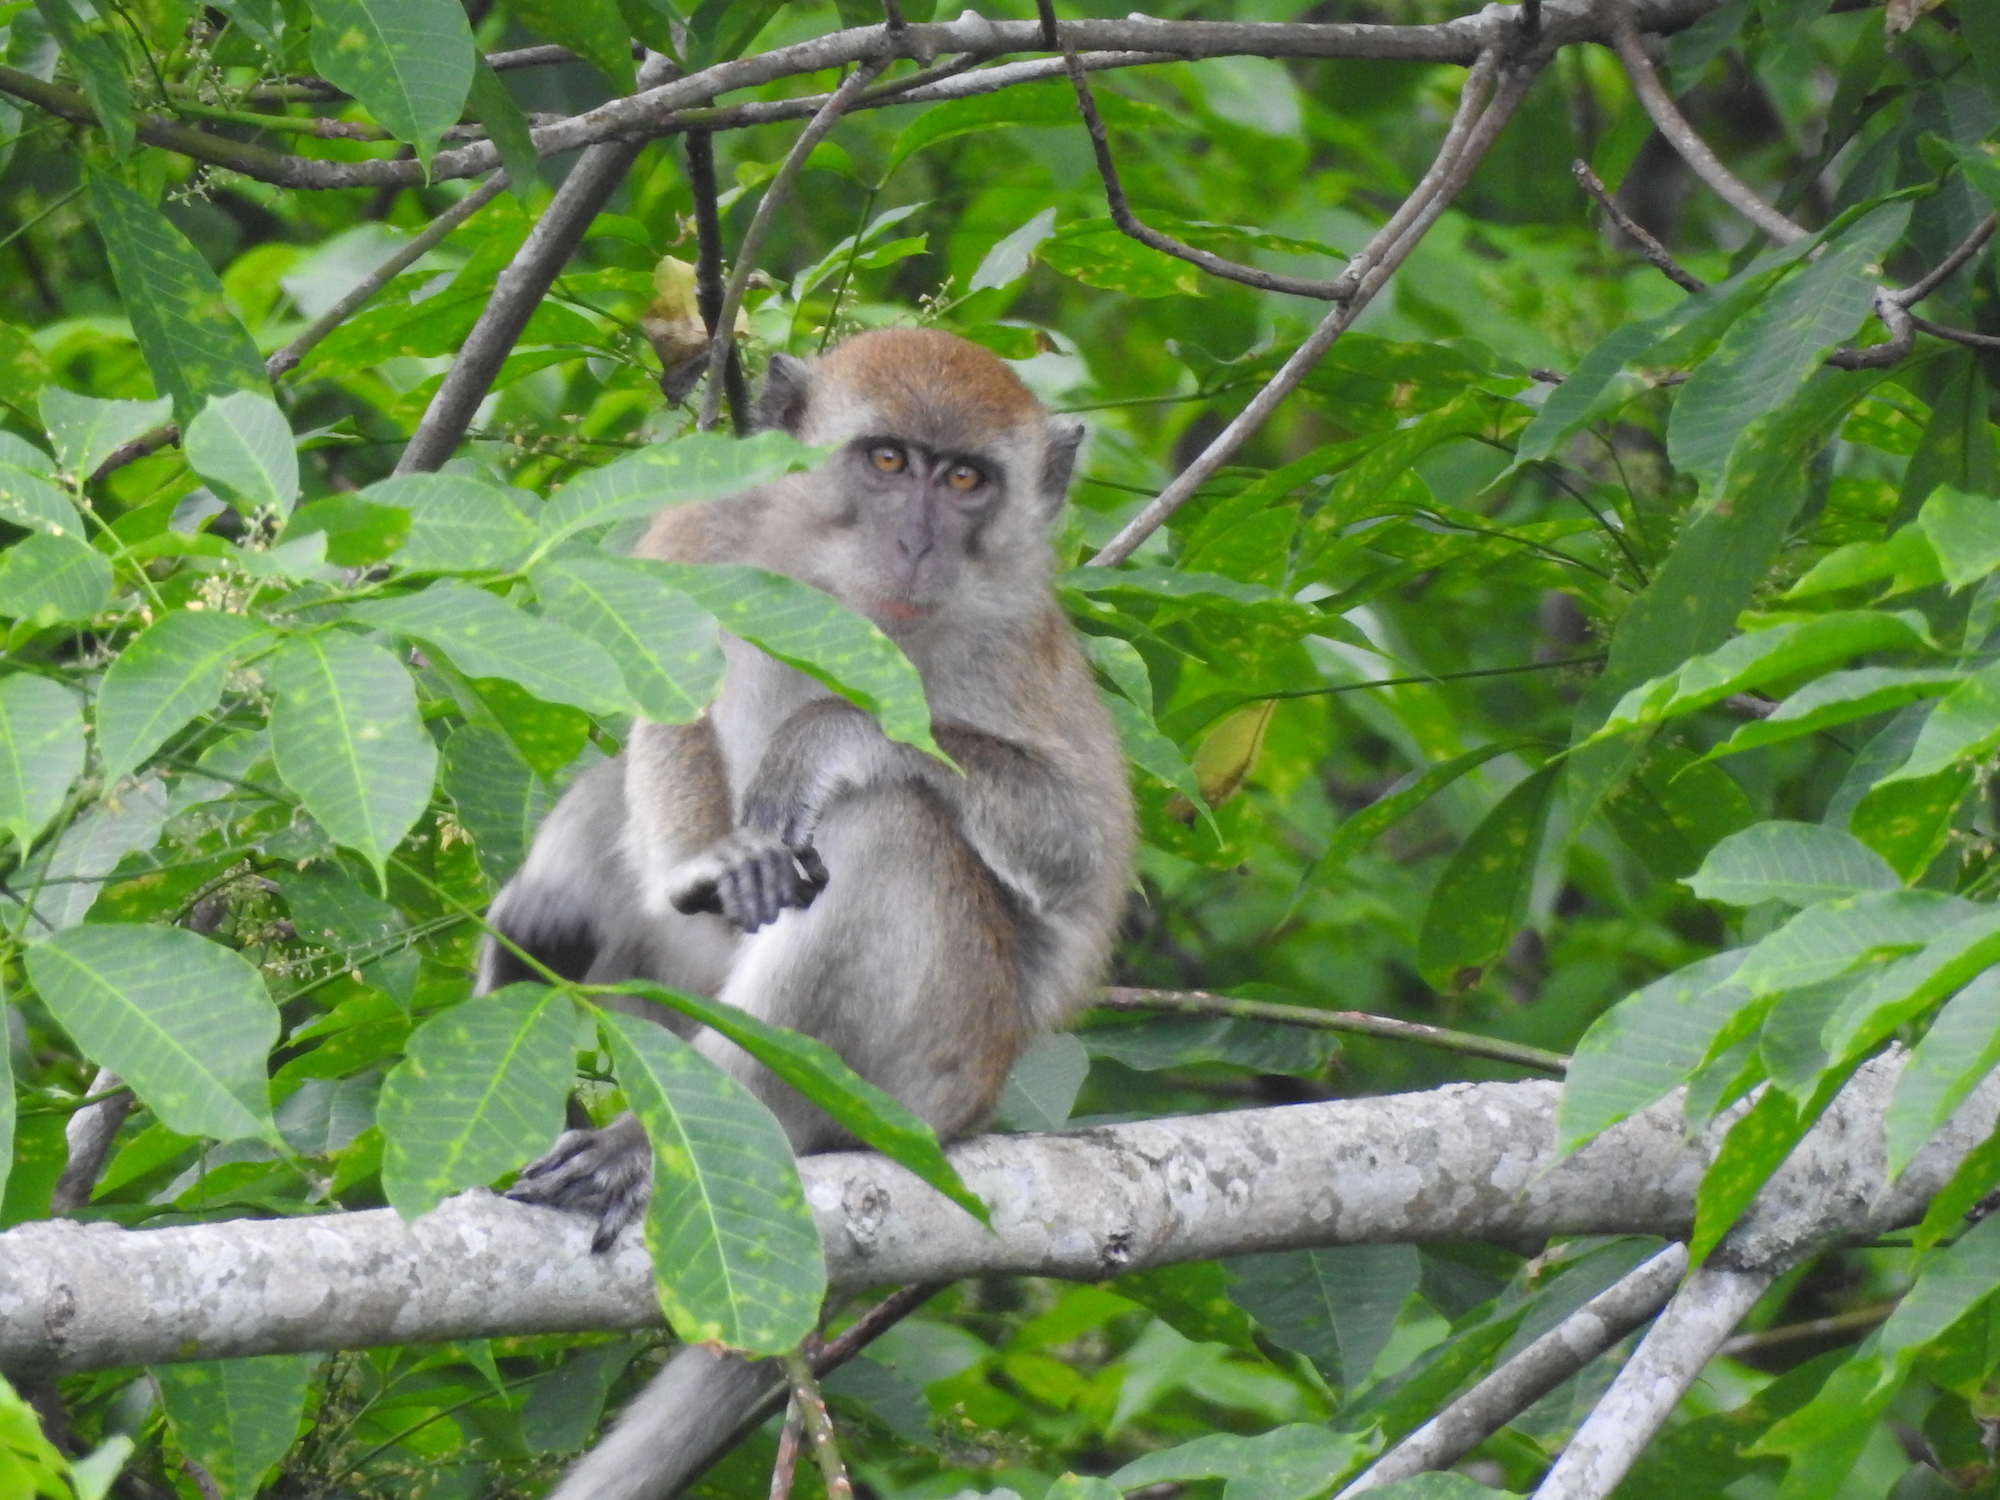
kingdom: Animalia
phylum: Chordata
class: Mammalia
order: Primates
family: Cercopithecidae
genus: Macaca
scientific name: Macaca fascicularis
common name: Crab-eating macaque
